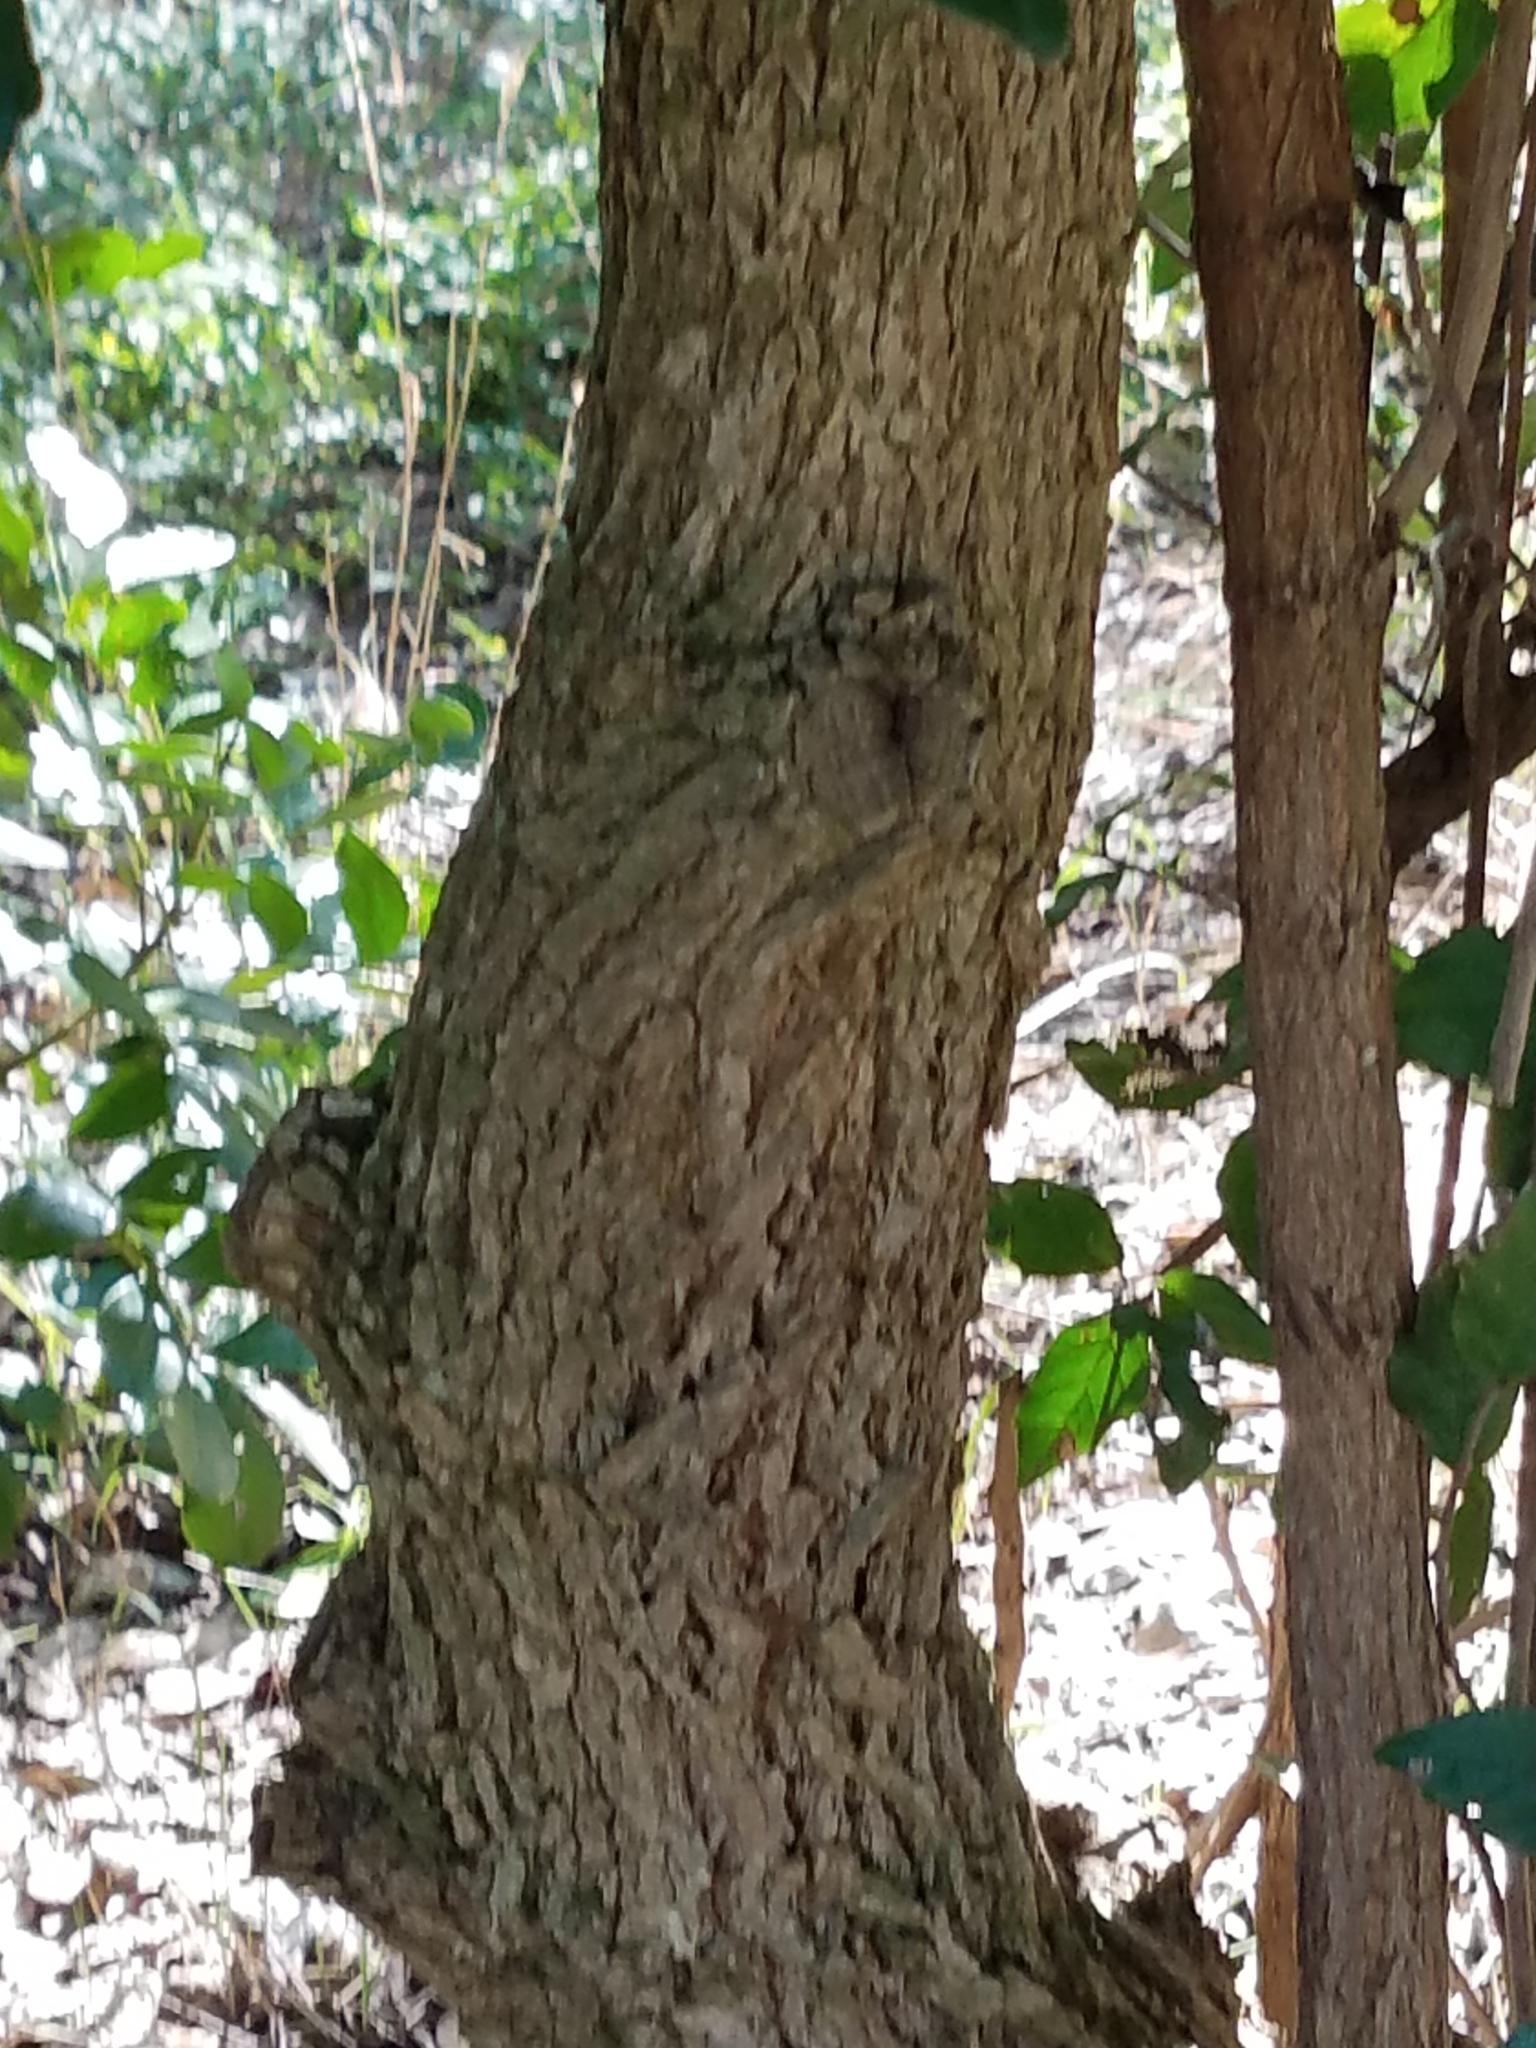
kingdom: Plantae
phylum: Tracheophyta
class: Magnoliopsida
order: Boraginales
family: Ehretiaceae
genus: Ehretia
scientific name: Ehretia anacua
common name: Sugarberry
